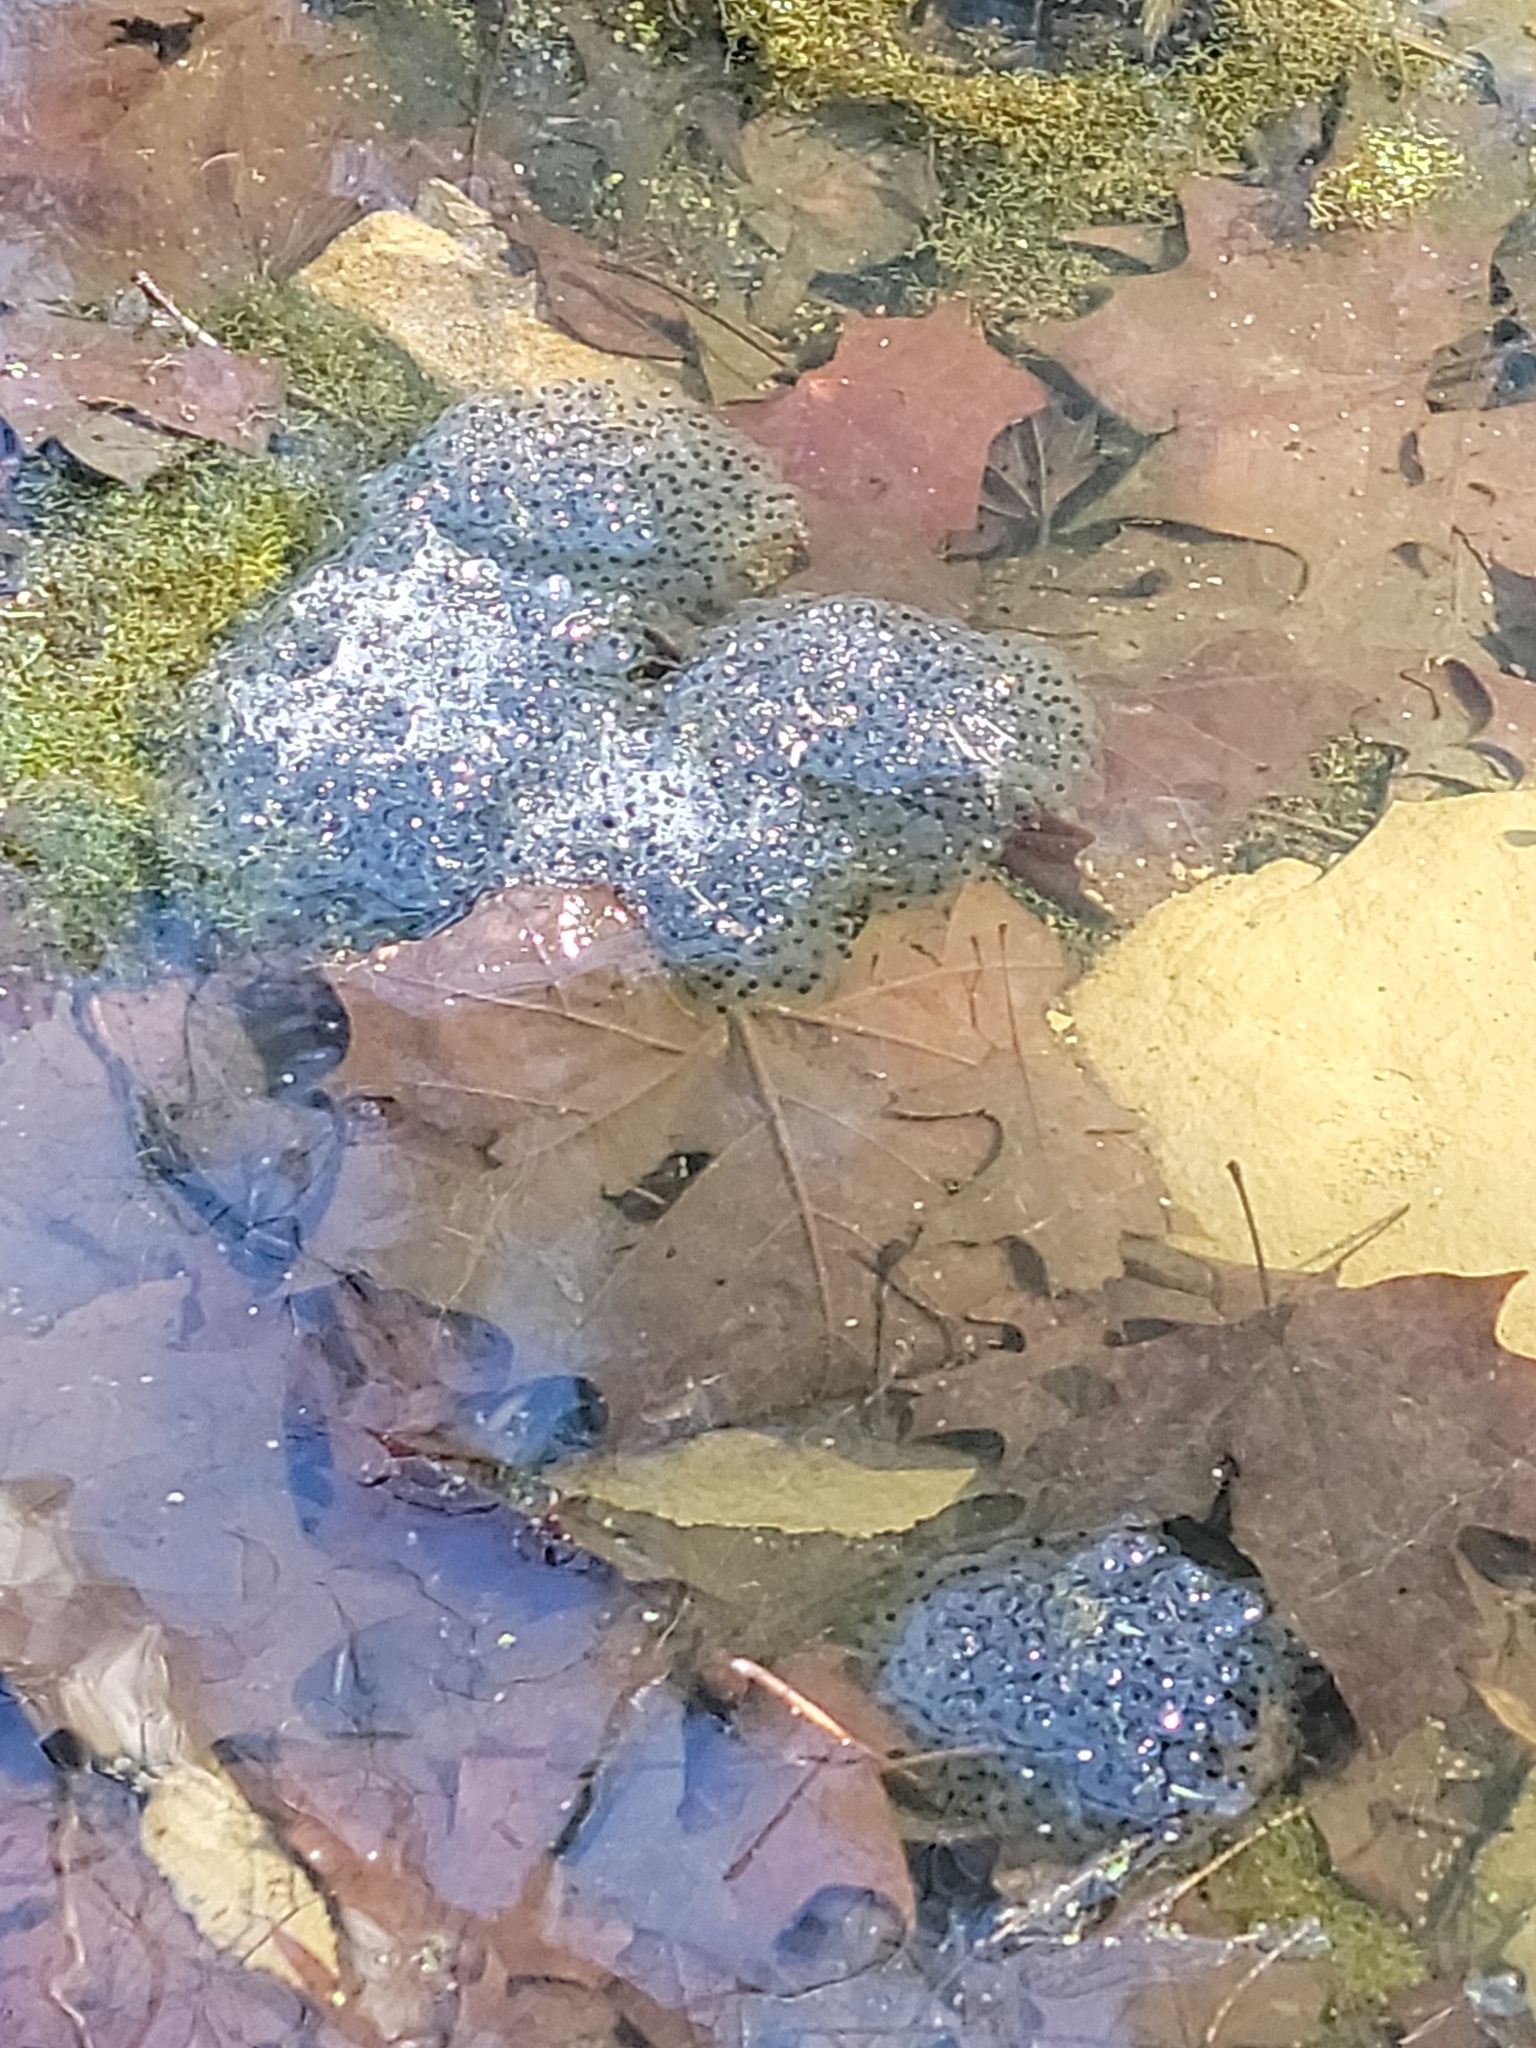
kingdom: Animalia
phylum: Chordata
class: Amphibia
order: Anura
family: Ranidae
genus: Lithobates
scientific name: Lithobates sylvaticus
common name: Wood frog
